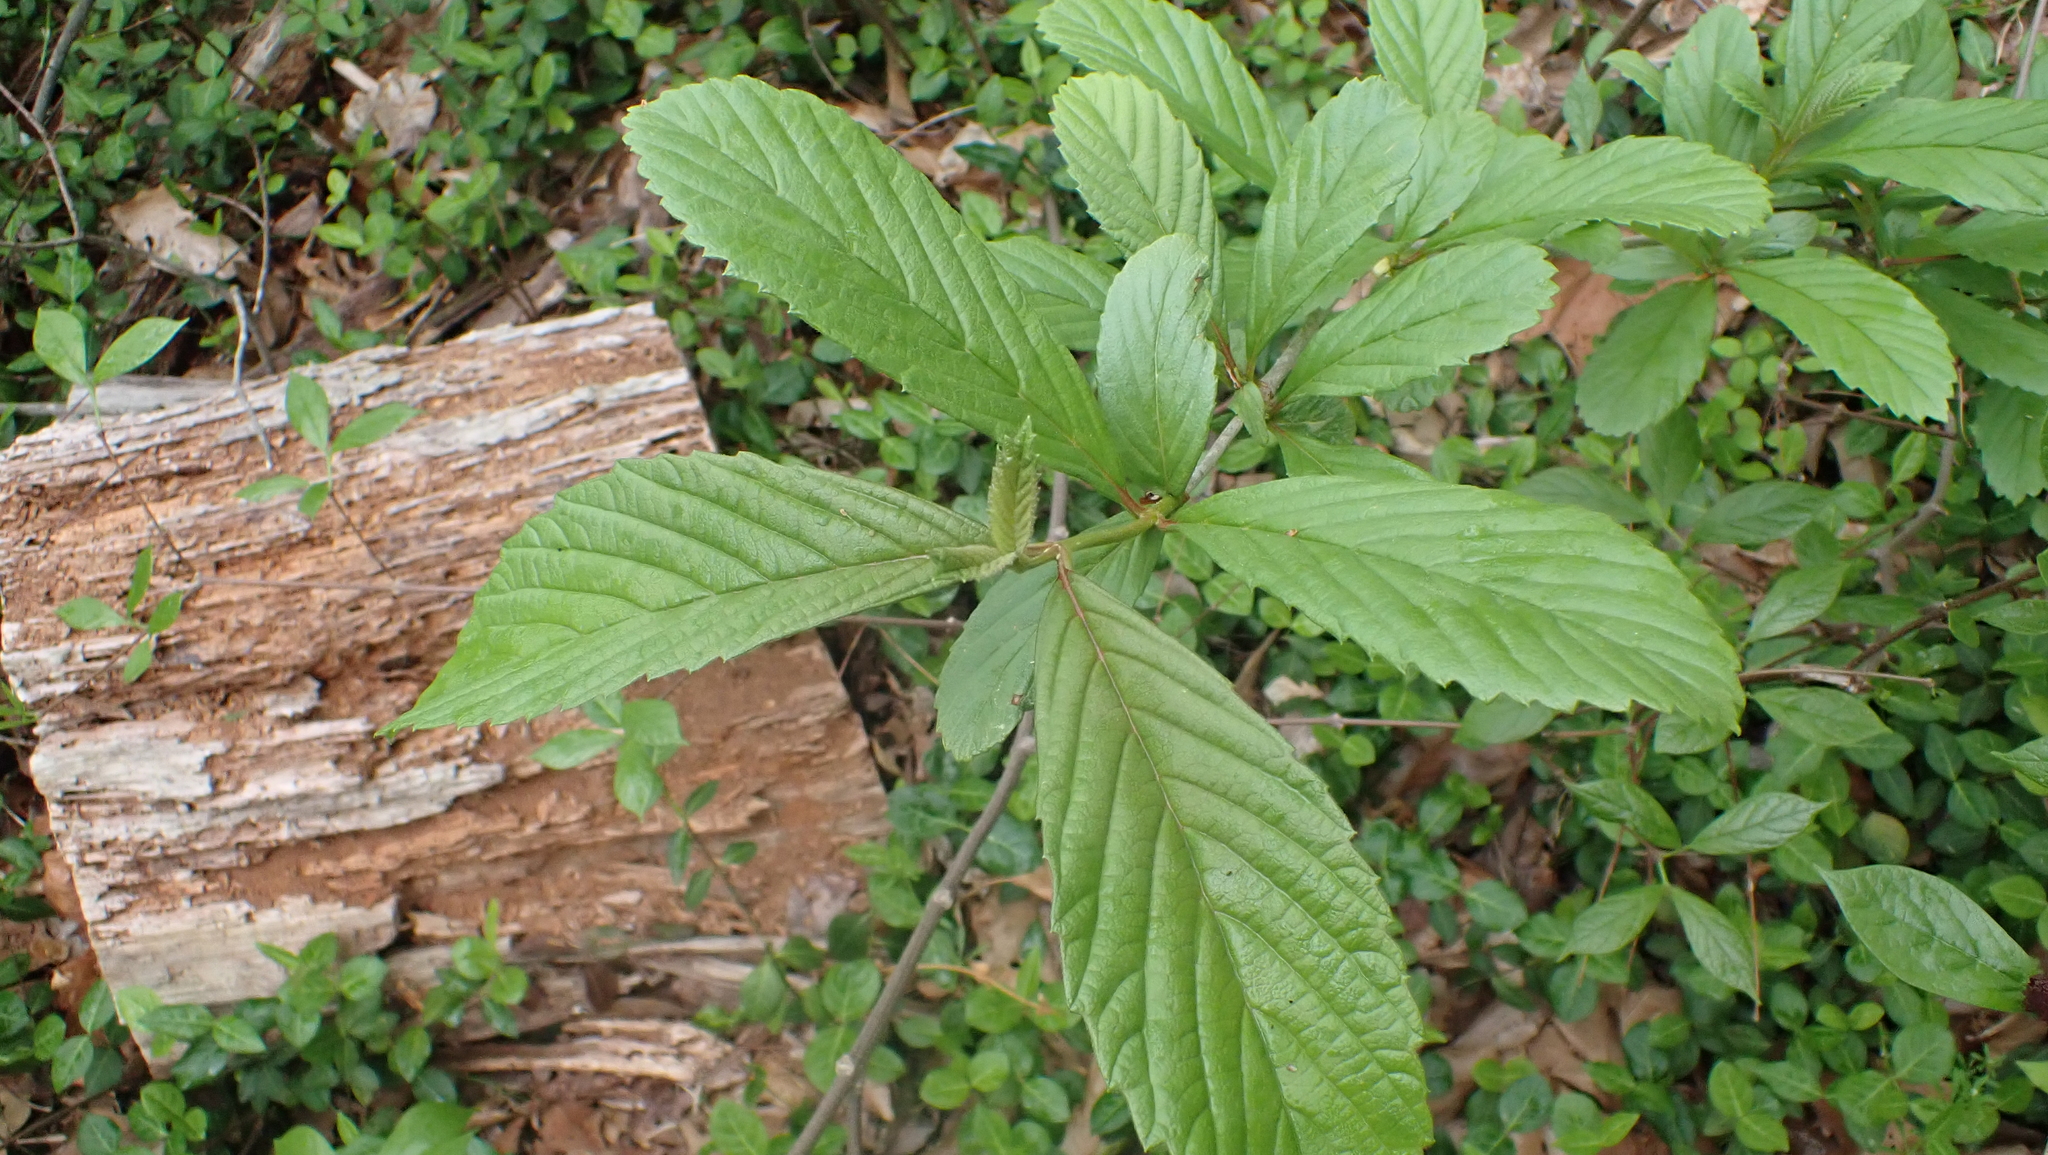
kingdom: Plantae
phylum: Tracheophyta
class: Magnoliopsida
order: Dipsacales
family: Viburnaceae
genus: Viburnum
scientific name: Viburnum sieboldii
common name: Siebold's arrowwood
